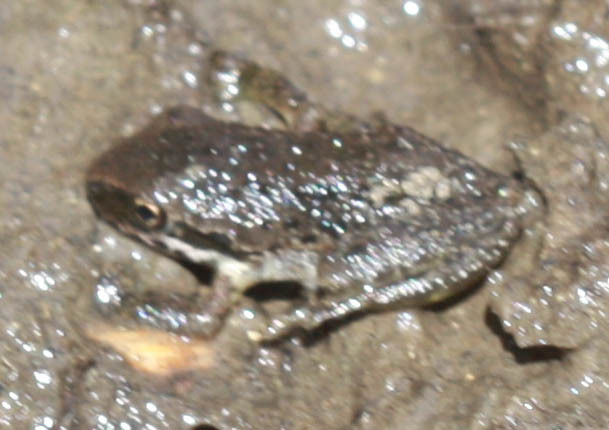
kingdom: Animalia
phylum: Chordata
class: Amphibia
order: Anura
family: Hylidae
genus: Pseudacris
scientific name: Pseudacris regilla
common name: Pacific chorus frog
